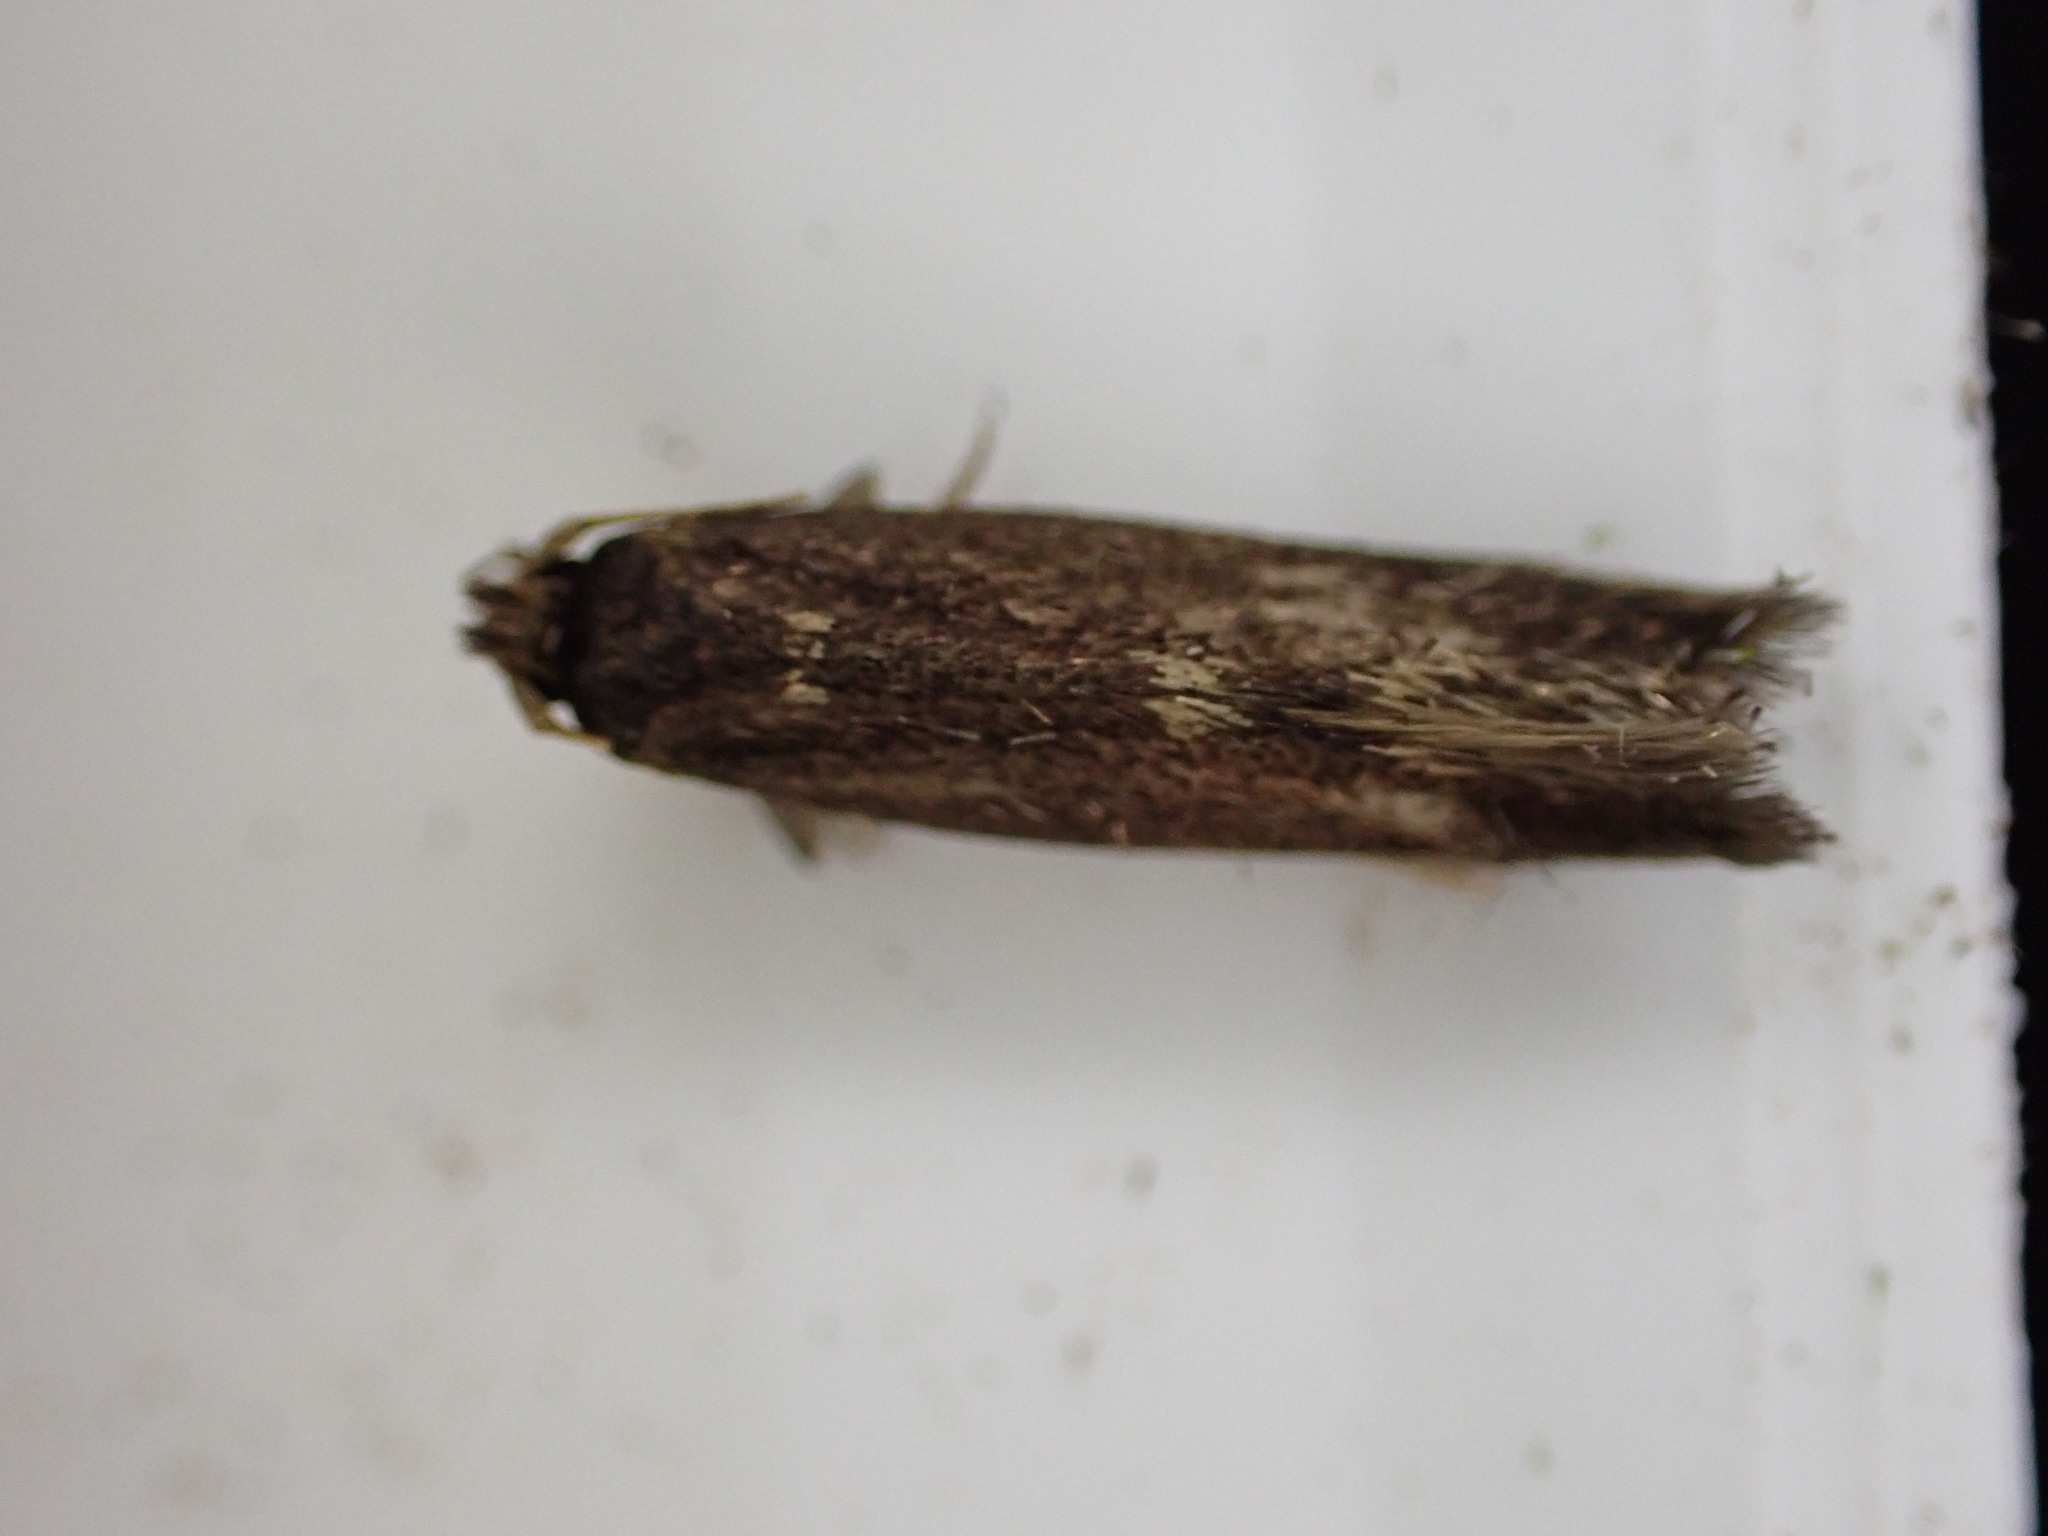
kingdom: Animalia
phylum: Arthropoda
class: Insecta
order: Lepidoptera
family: Tineidae
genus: Opogona
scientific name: Opogona omoscopa
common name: Moth
